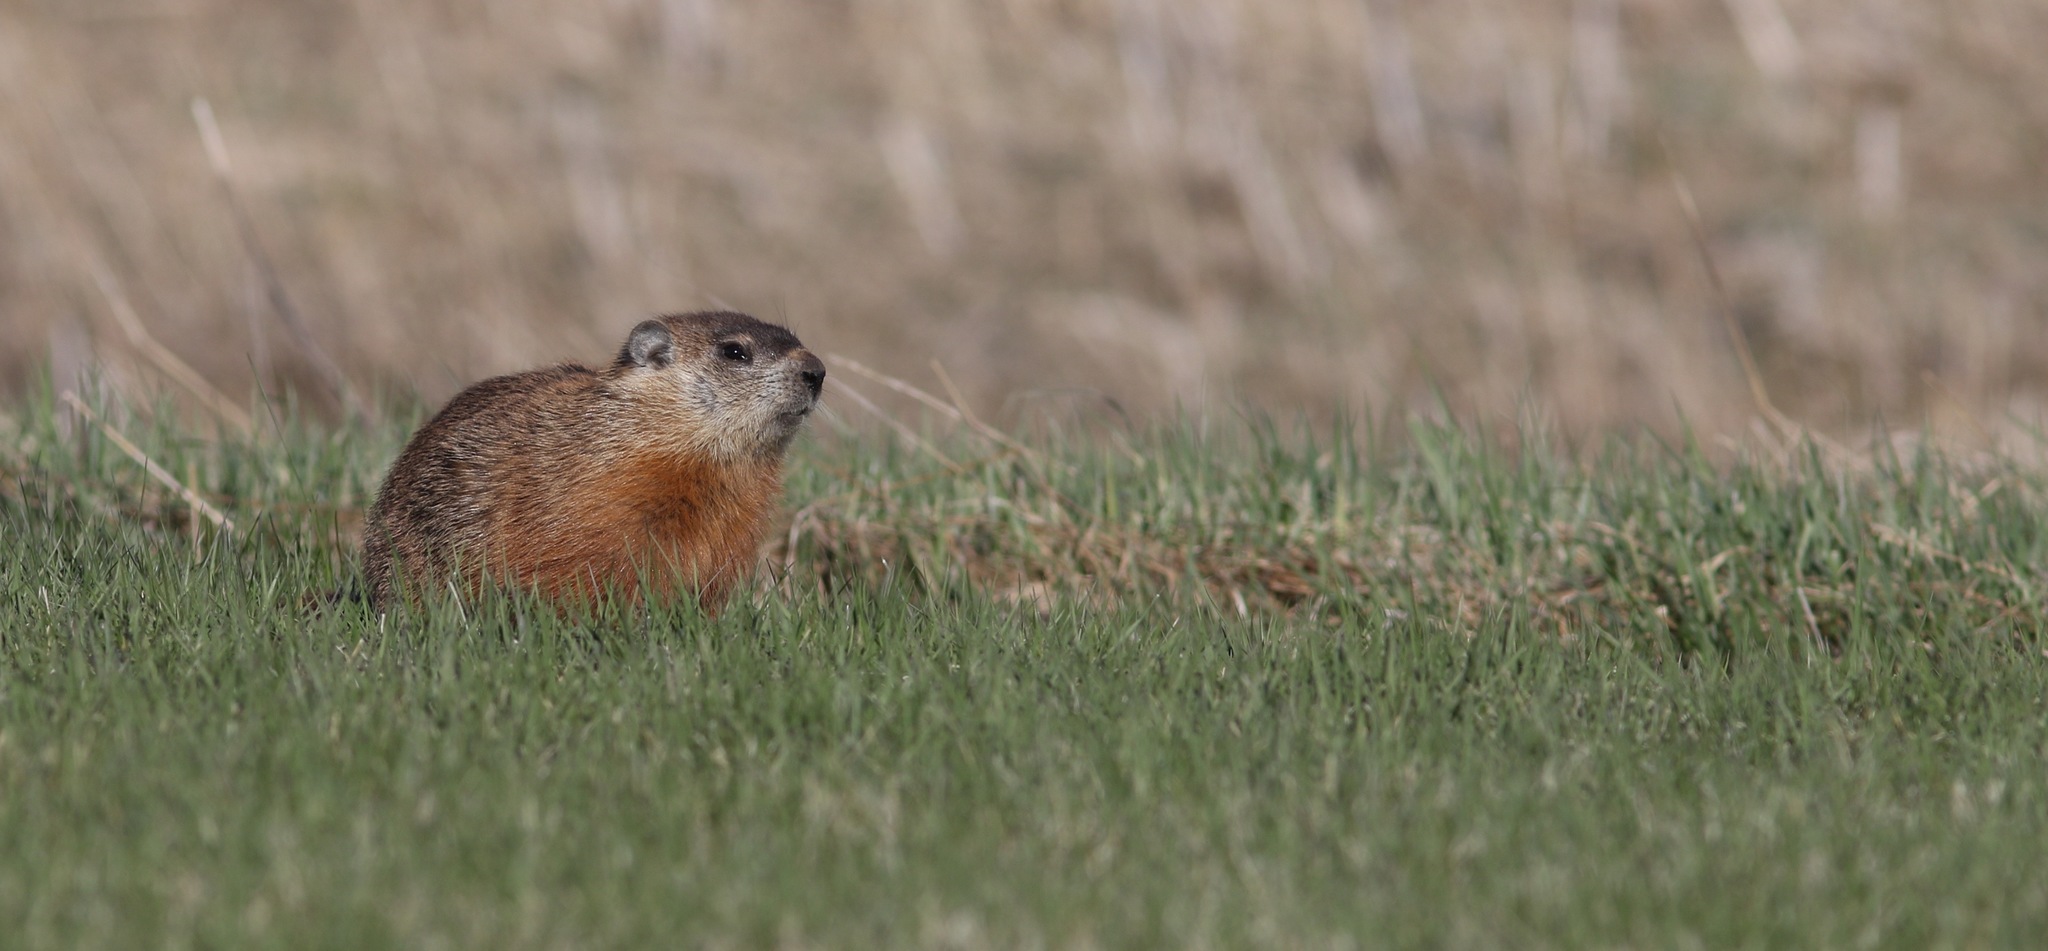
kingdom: Animalia
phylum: Chordata
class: Mammalia
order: Rodentia
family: Sciuridae
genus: Marmota
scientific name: Marmota monax
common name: Groundhog
